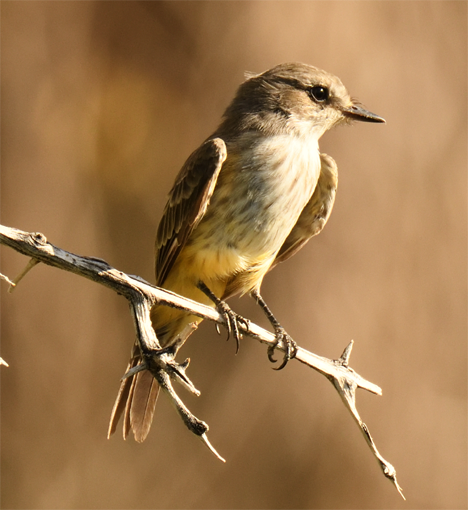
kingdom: Animalia
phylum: Chordata
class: Aves
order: Passeriformes
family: Tyrannidae
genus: Pyrocephalus
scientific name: Pyrocephalus rubinus
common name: Vermilion flycatcher
